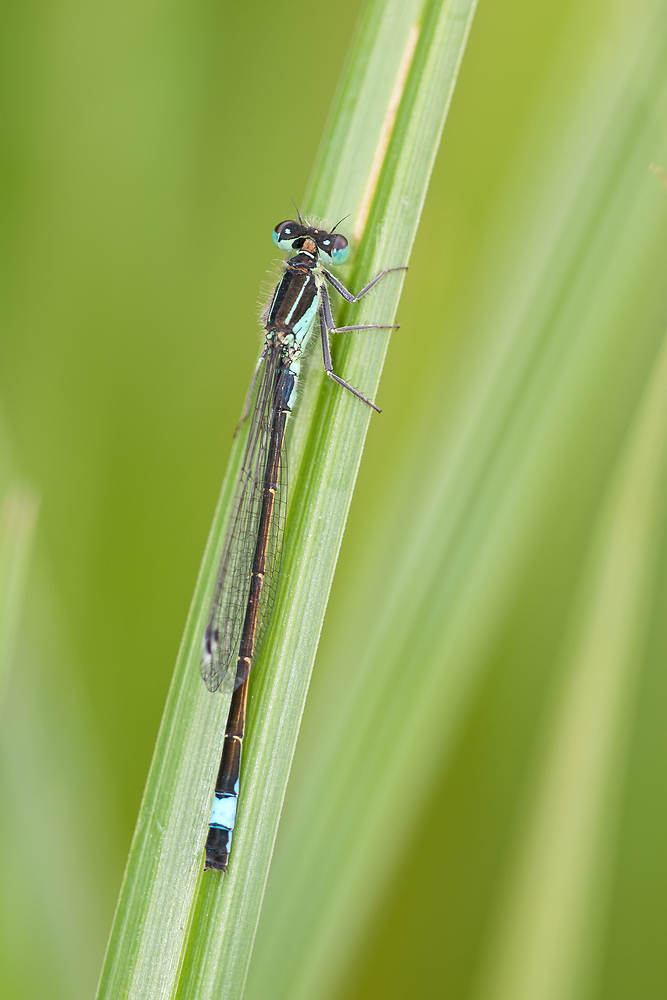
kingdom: Animalia
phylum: Arthropoda
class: Insecta
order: Odonata
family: Coenagrionidae
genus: Ischnura
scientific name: Ischnura elegans
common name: Blue-tailed damselfly
